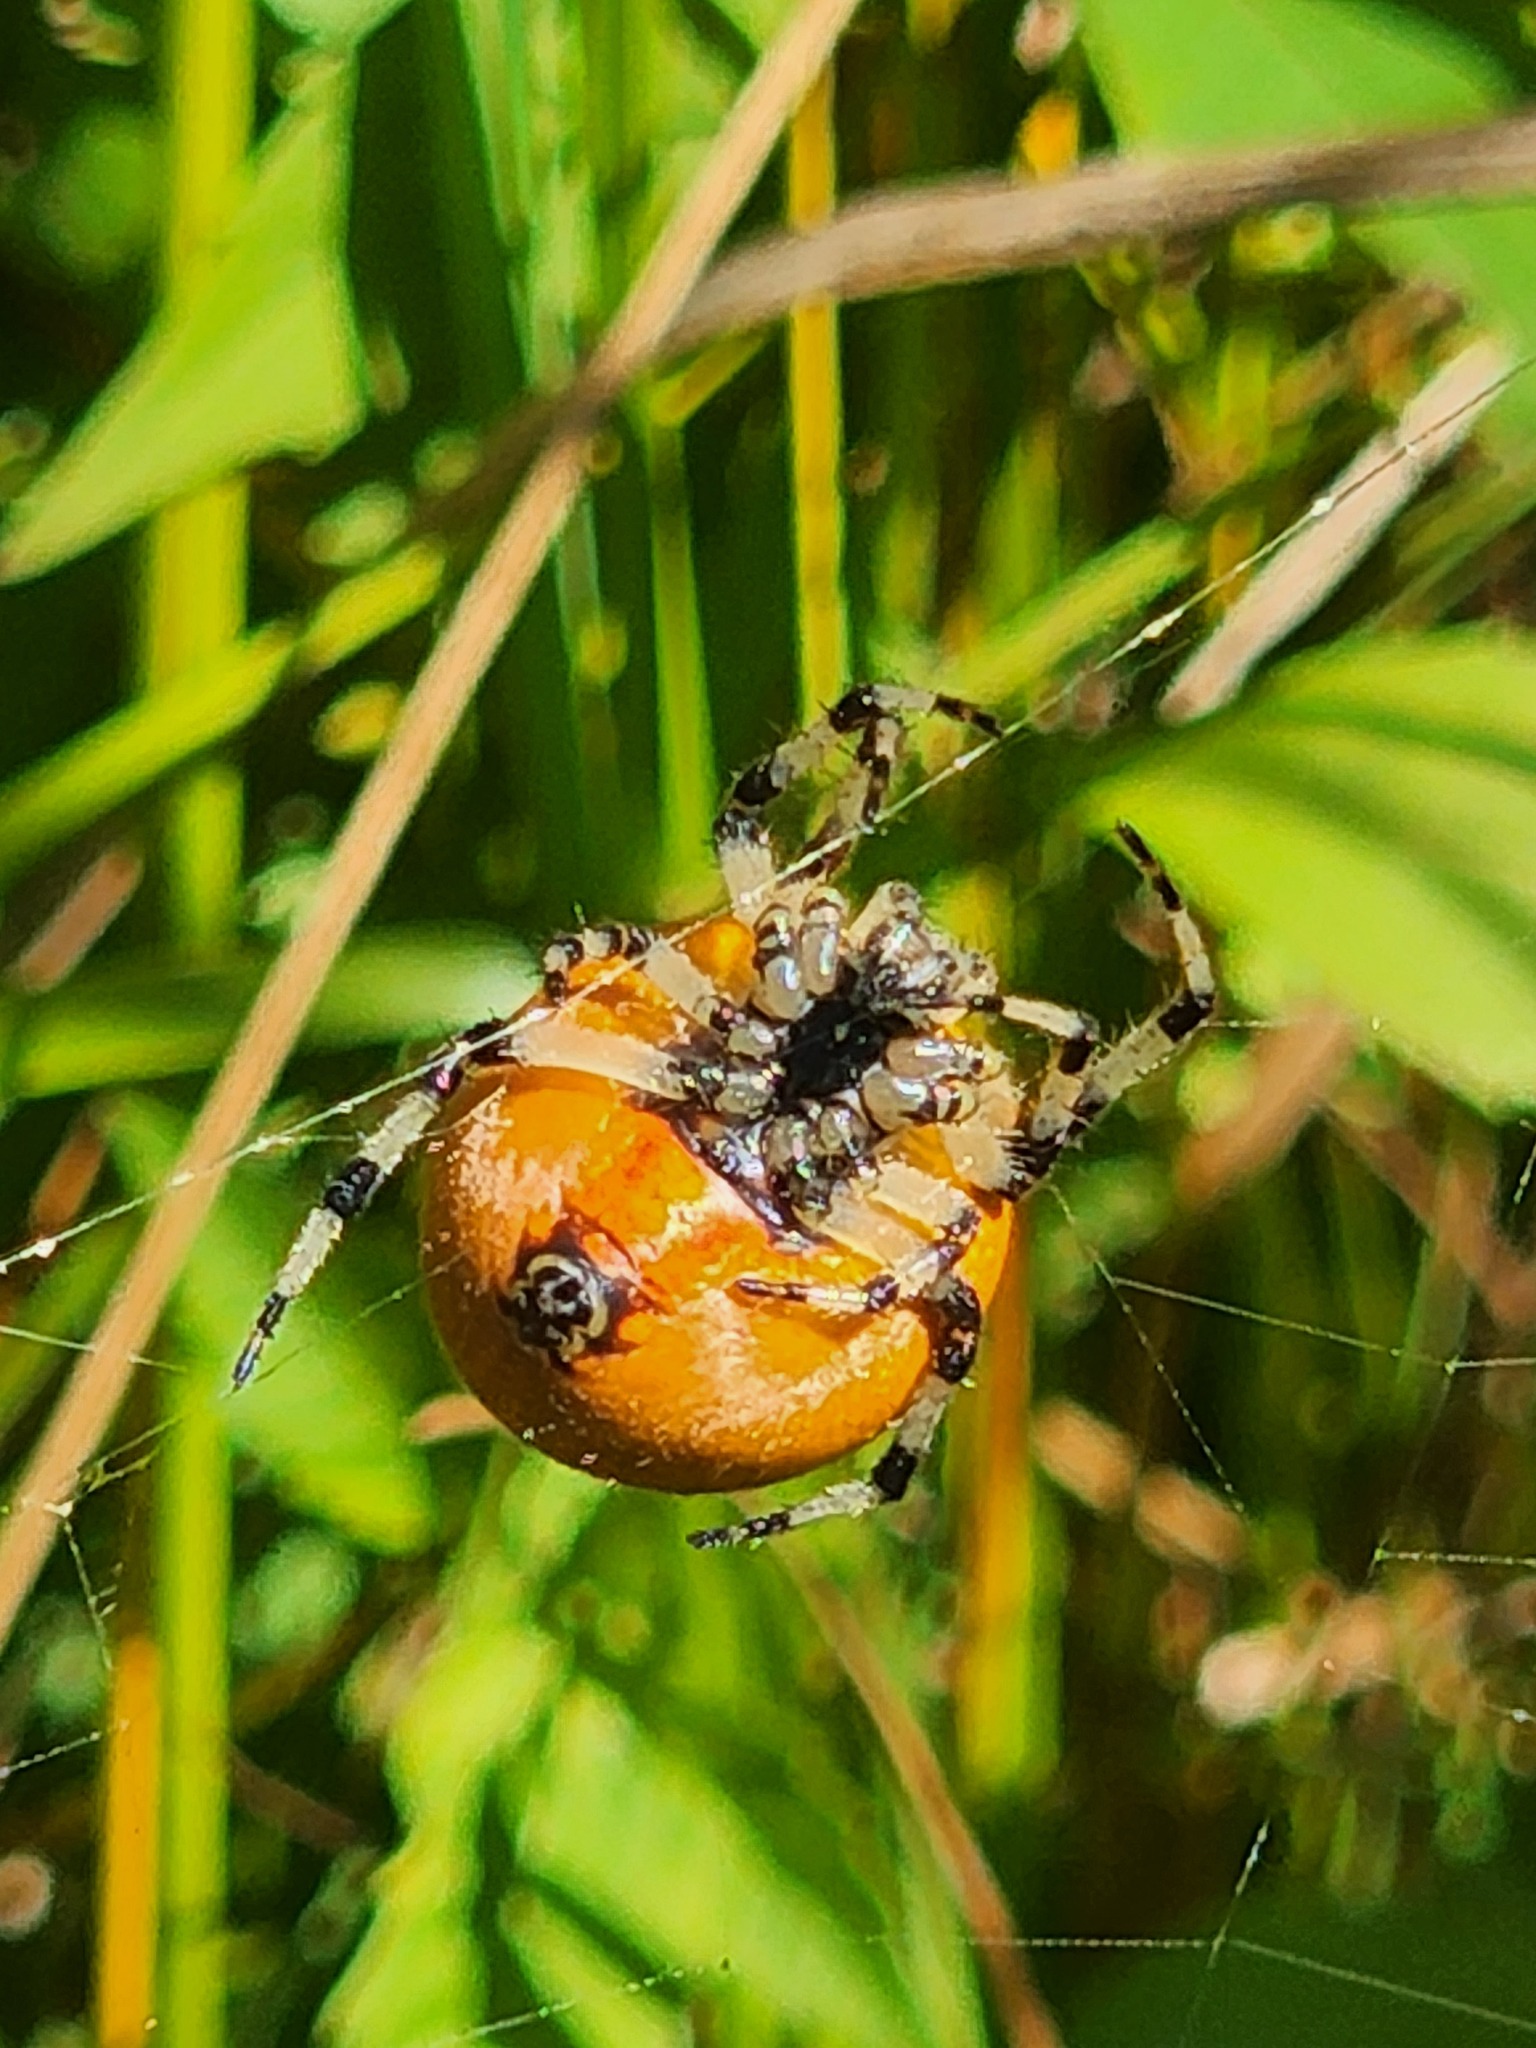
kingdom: Animalia
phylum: Arthropoda
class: Arachnida
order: Araneae
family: Araneidae
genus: Araneus
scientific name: Araneus trifolium
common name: Shamrock orbweaver
